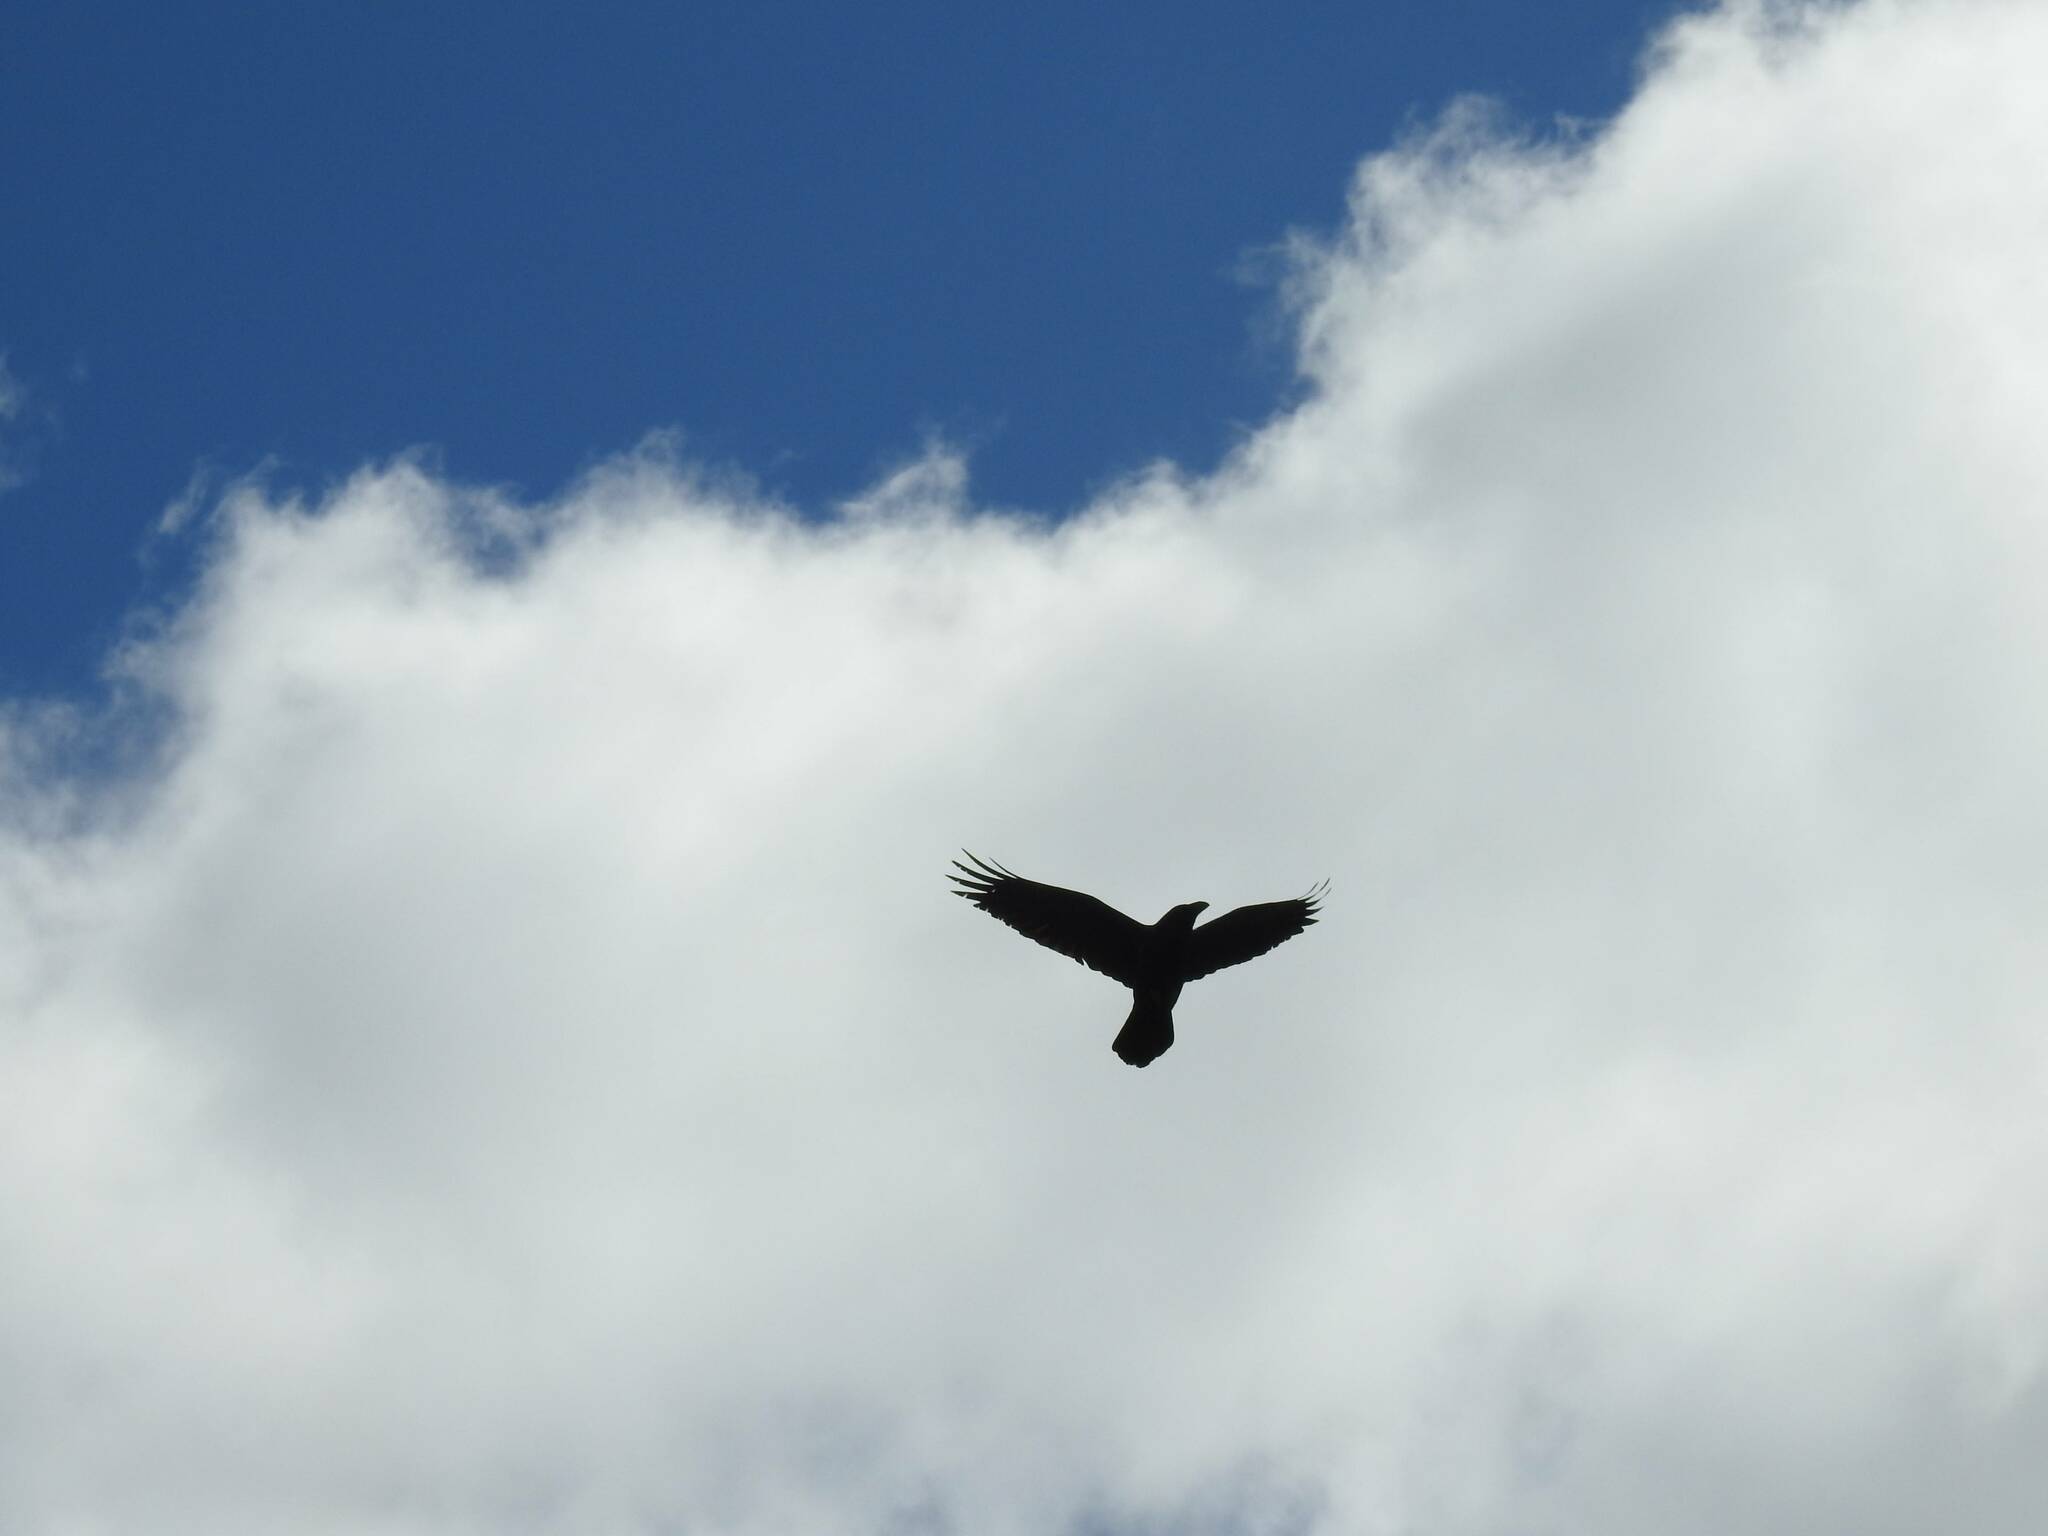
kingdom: Animalia
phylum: Chordata
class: Aves
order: Passeriformes
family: Corvidae
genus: Corvus
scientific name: Corvus corax
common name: Common raven
